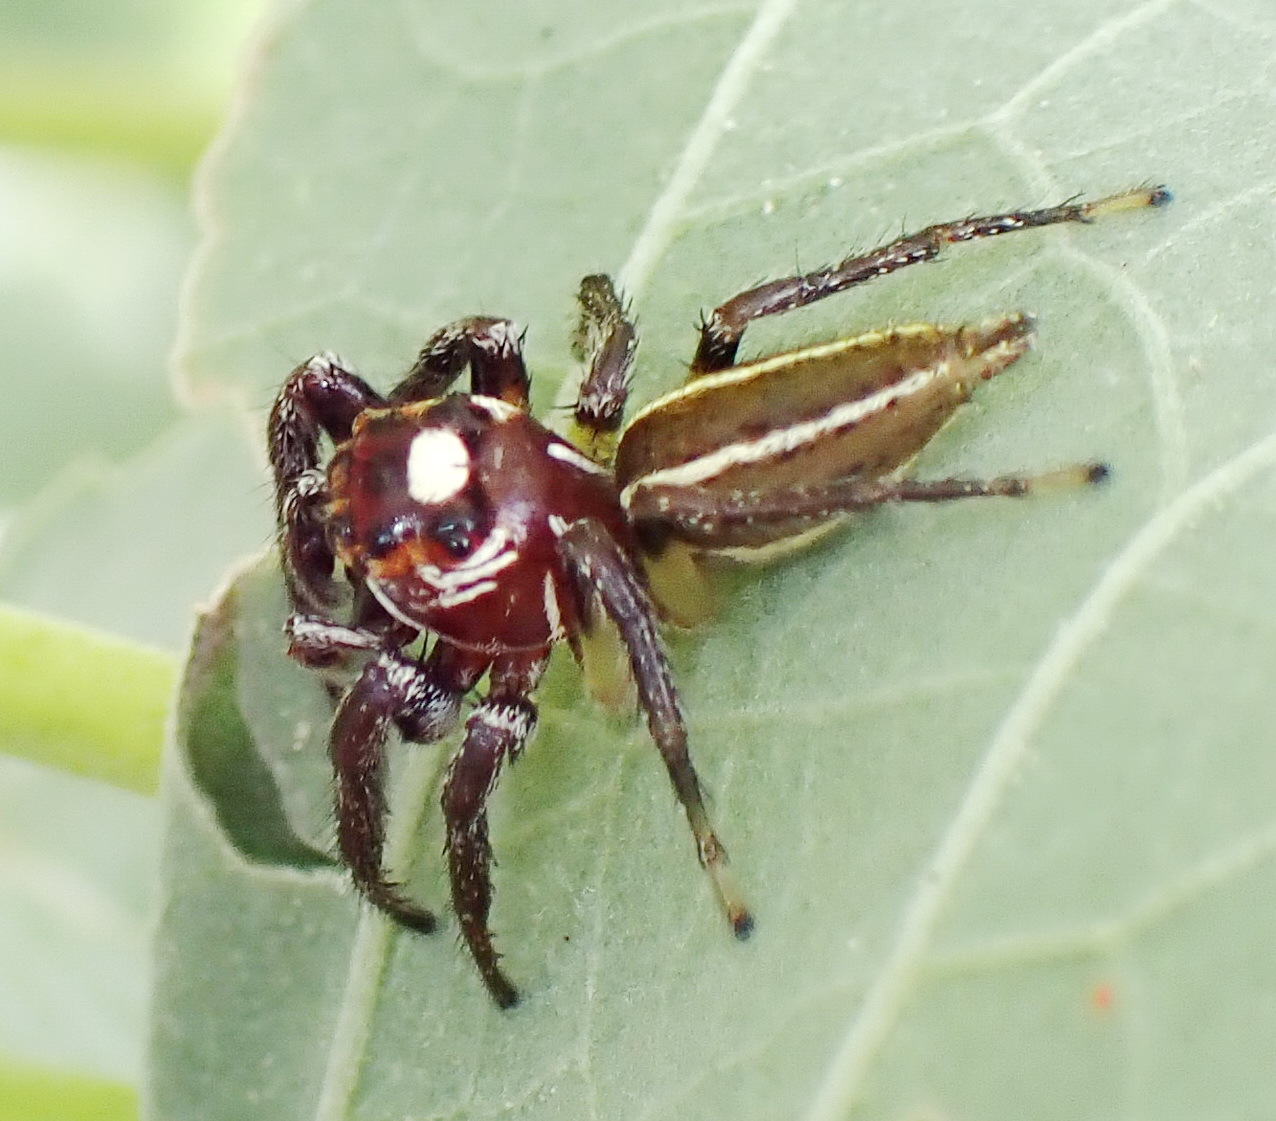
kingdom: Animalia
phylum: Arthropoda
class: Arachnida
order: Araneae
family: Salticidae
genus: Colonus
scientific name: Colonus sylvanus
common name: Jumping spiders
